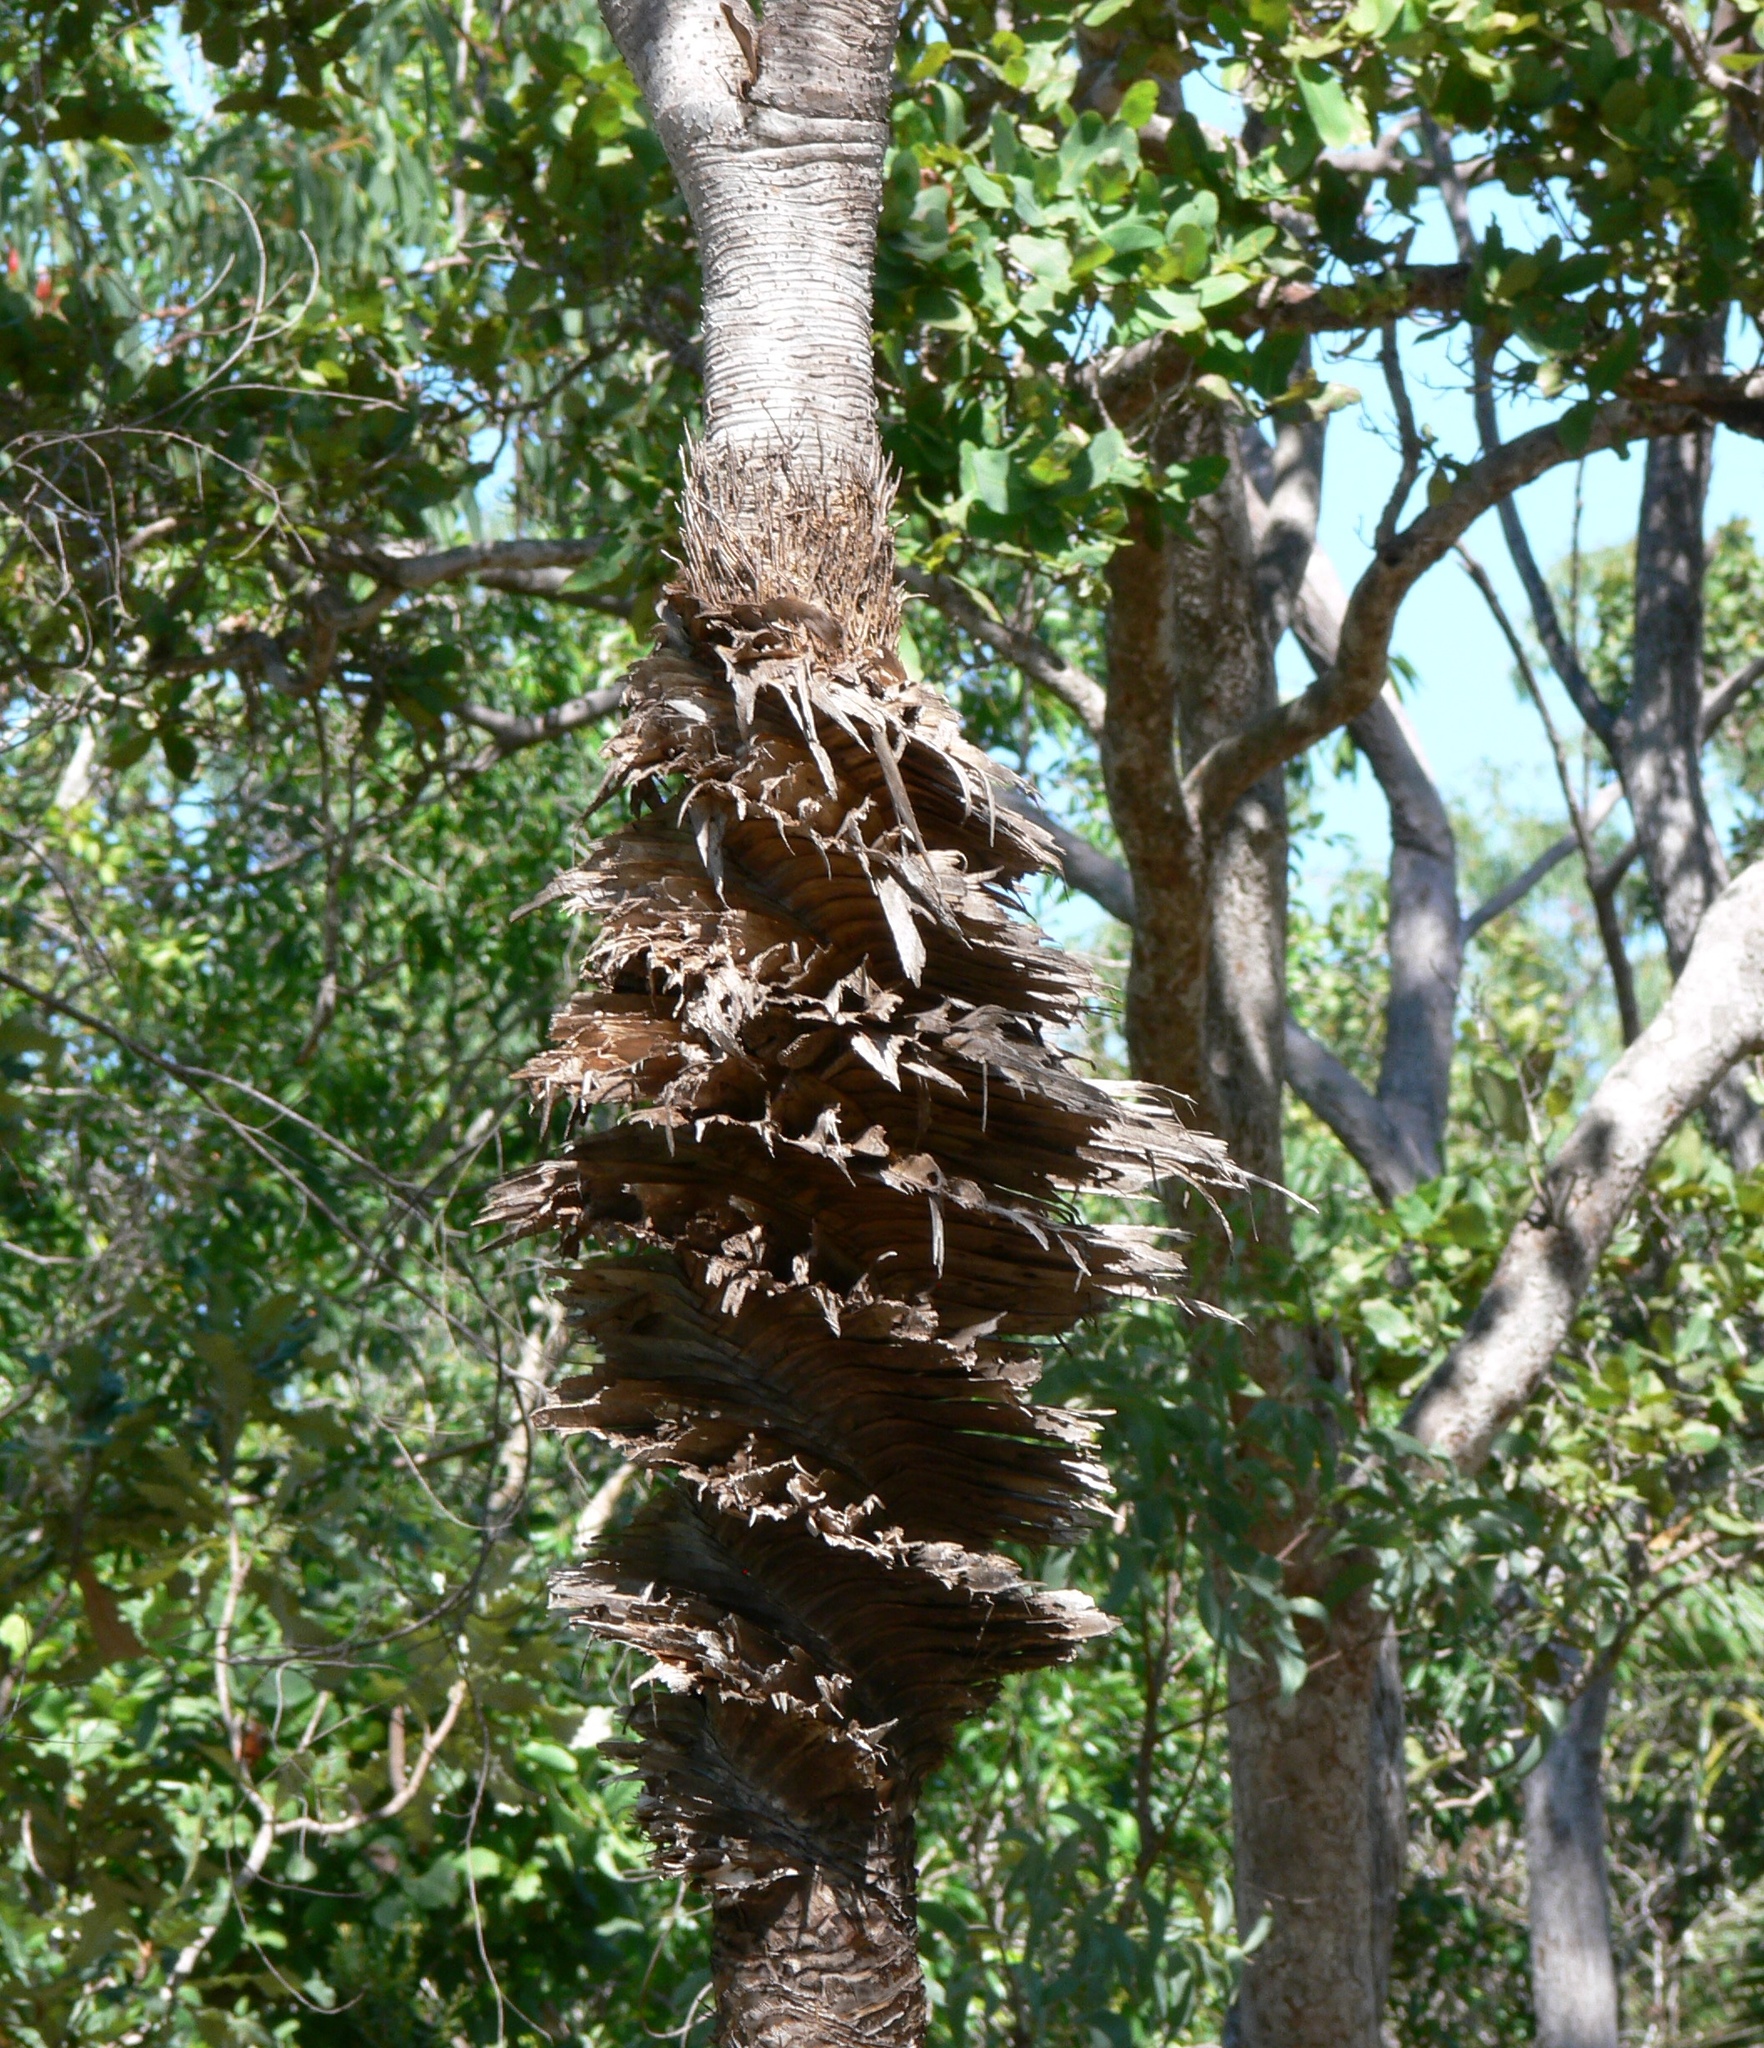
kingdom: Plantae
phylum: Tracheophyta
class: Liliopsida
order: Pandanales
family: Pandanaceae
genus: Pandanus
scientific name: Pandanus spiralis
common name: Screw-pine
